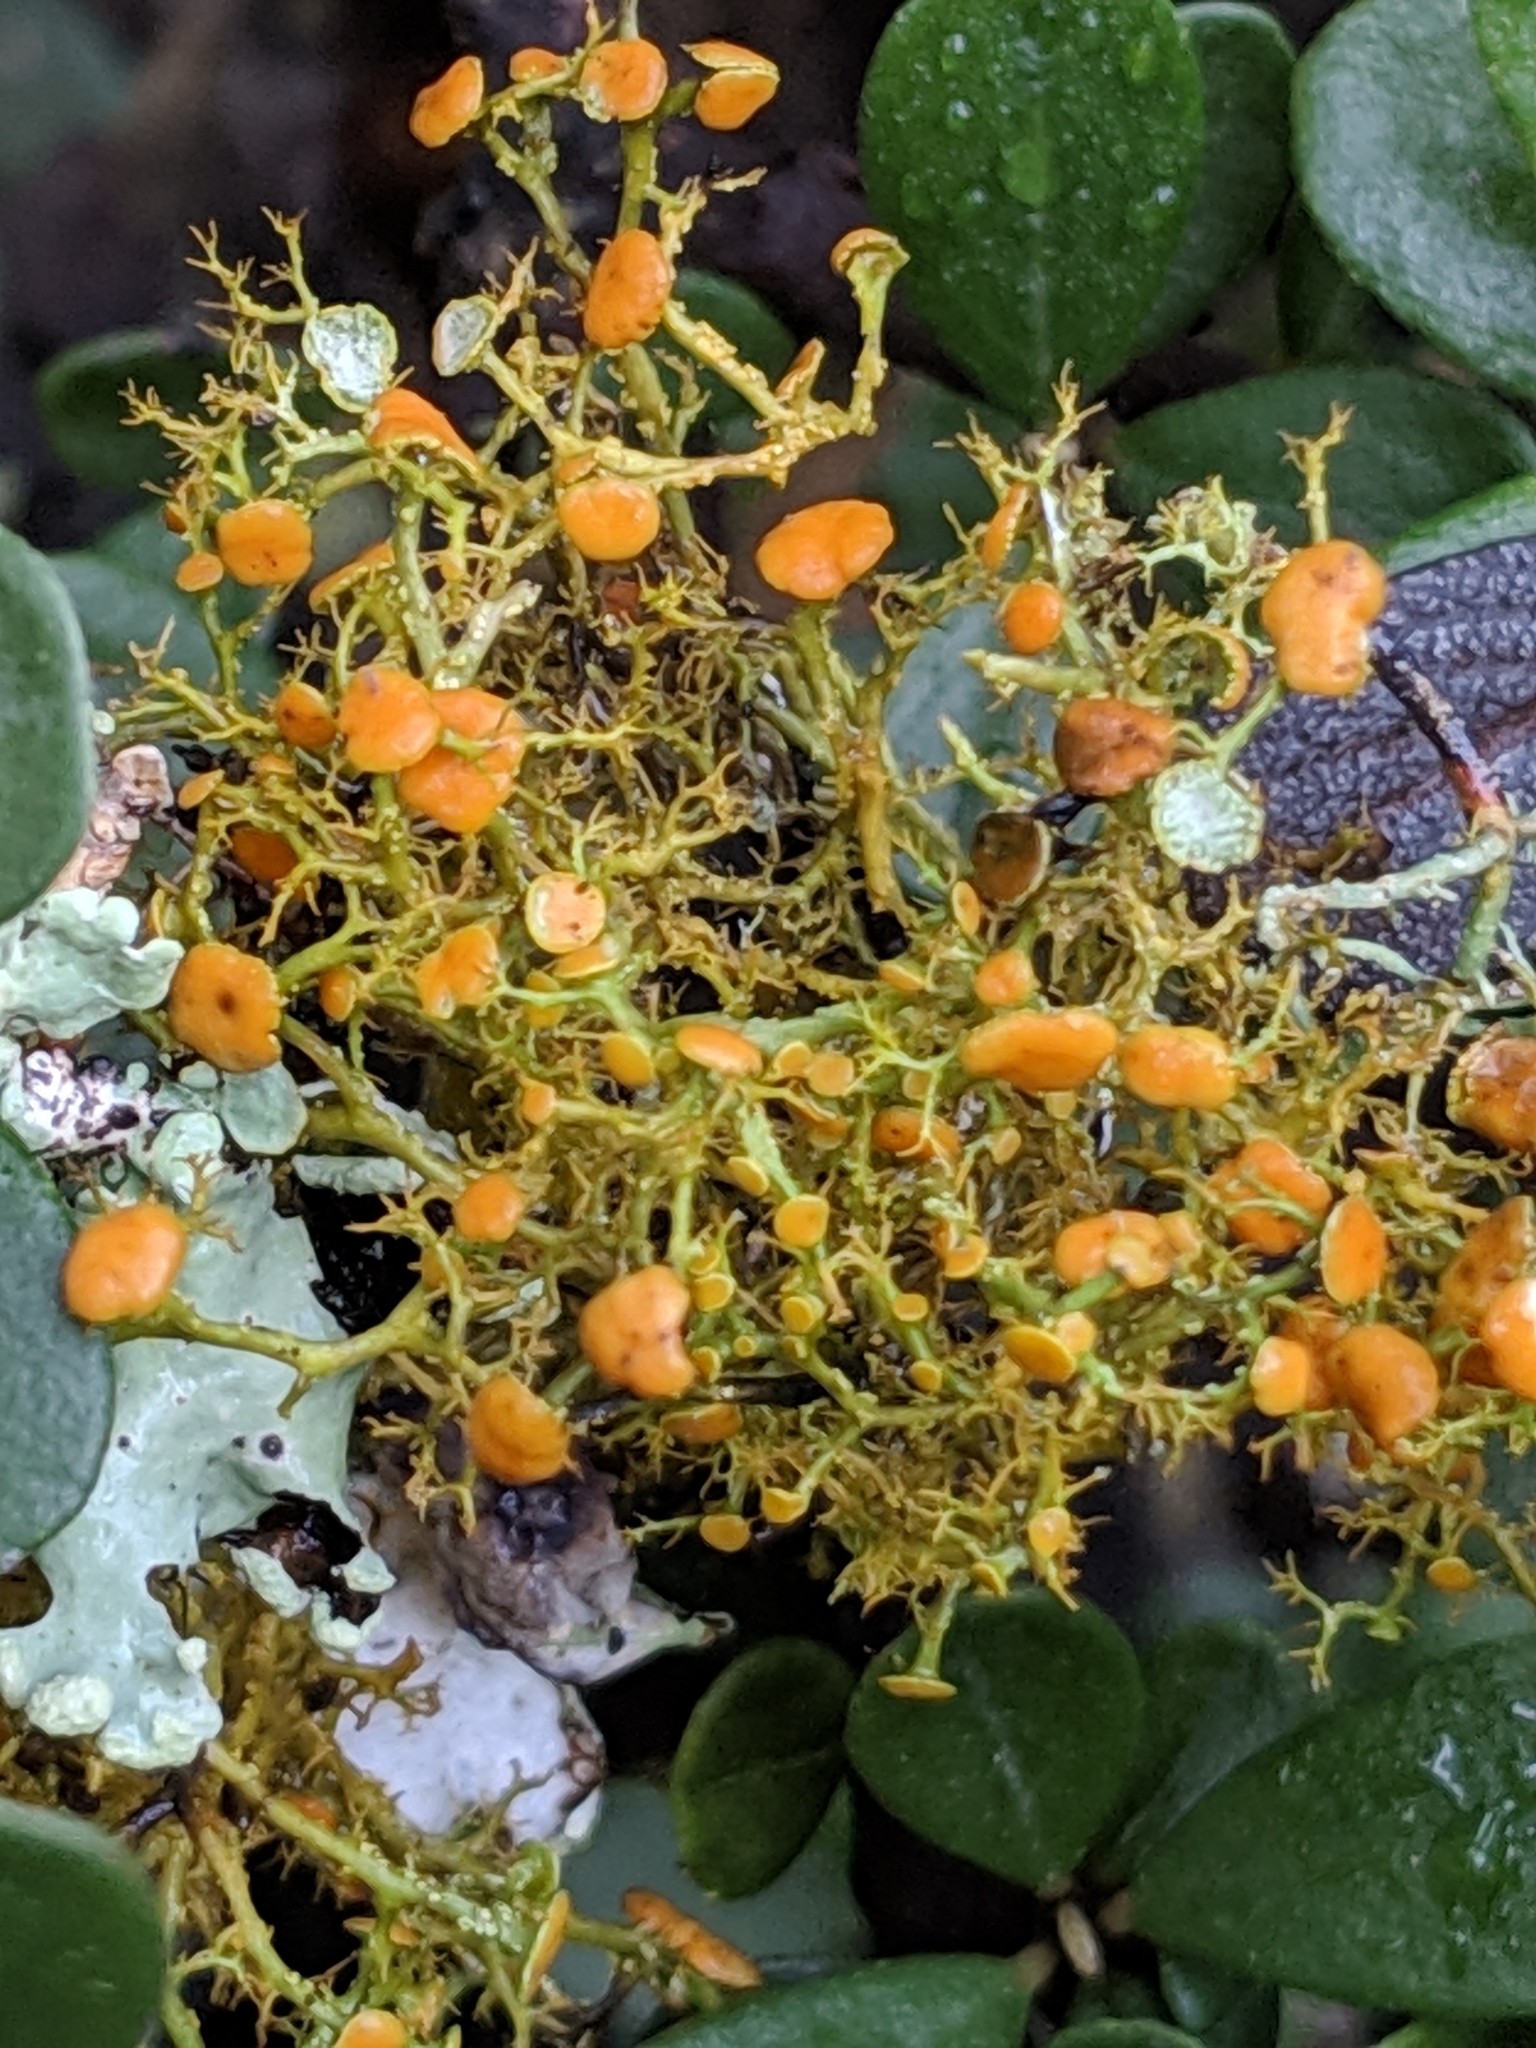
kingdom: Fungi
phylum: Ascomycota
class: Lecanoromycetes
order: Teloschistales
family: Teloschistaceae
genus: Teloschistes
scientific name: Teloschistes flavicans
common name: Golden hair-lichen
